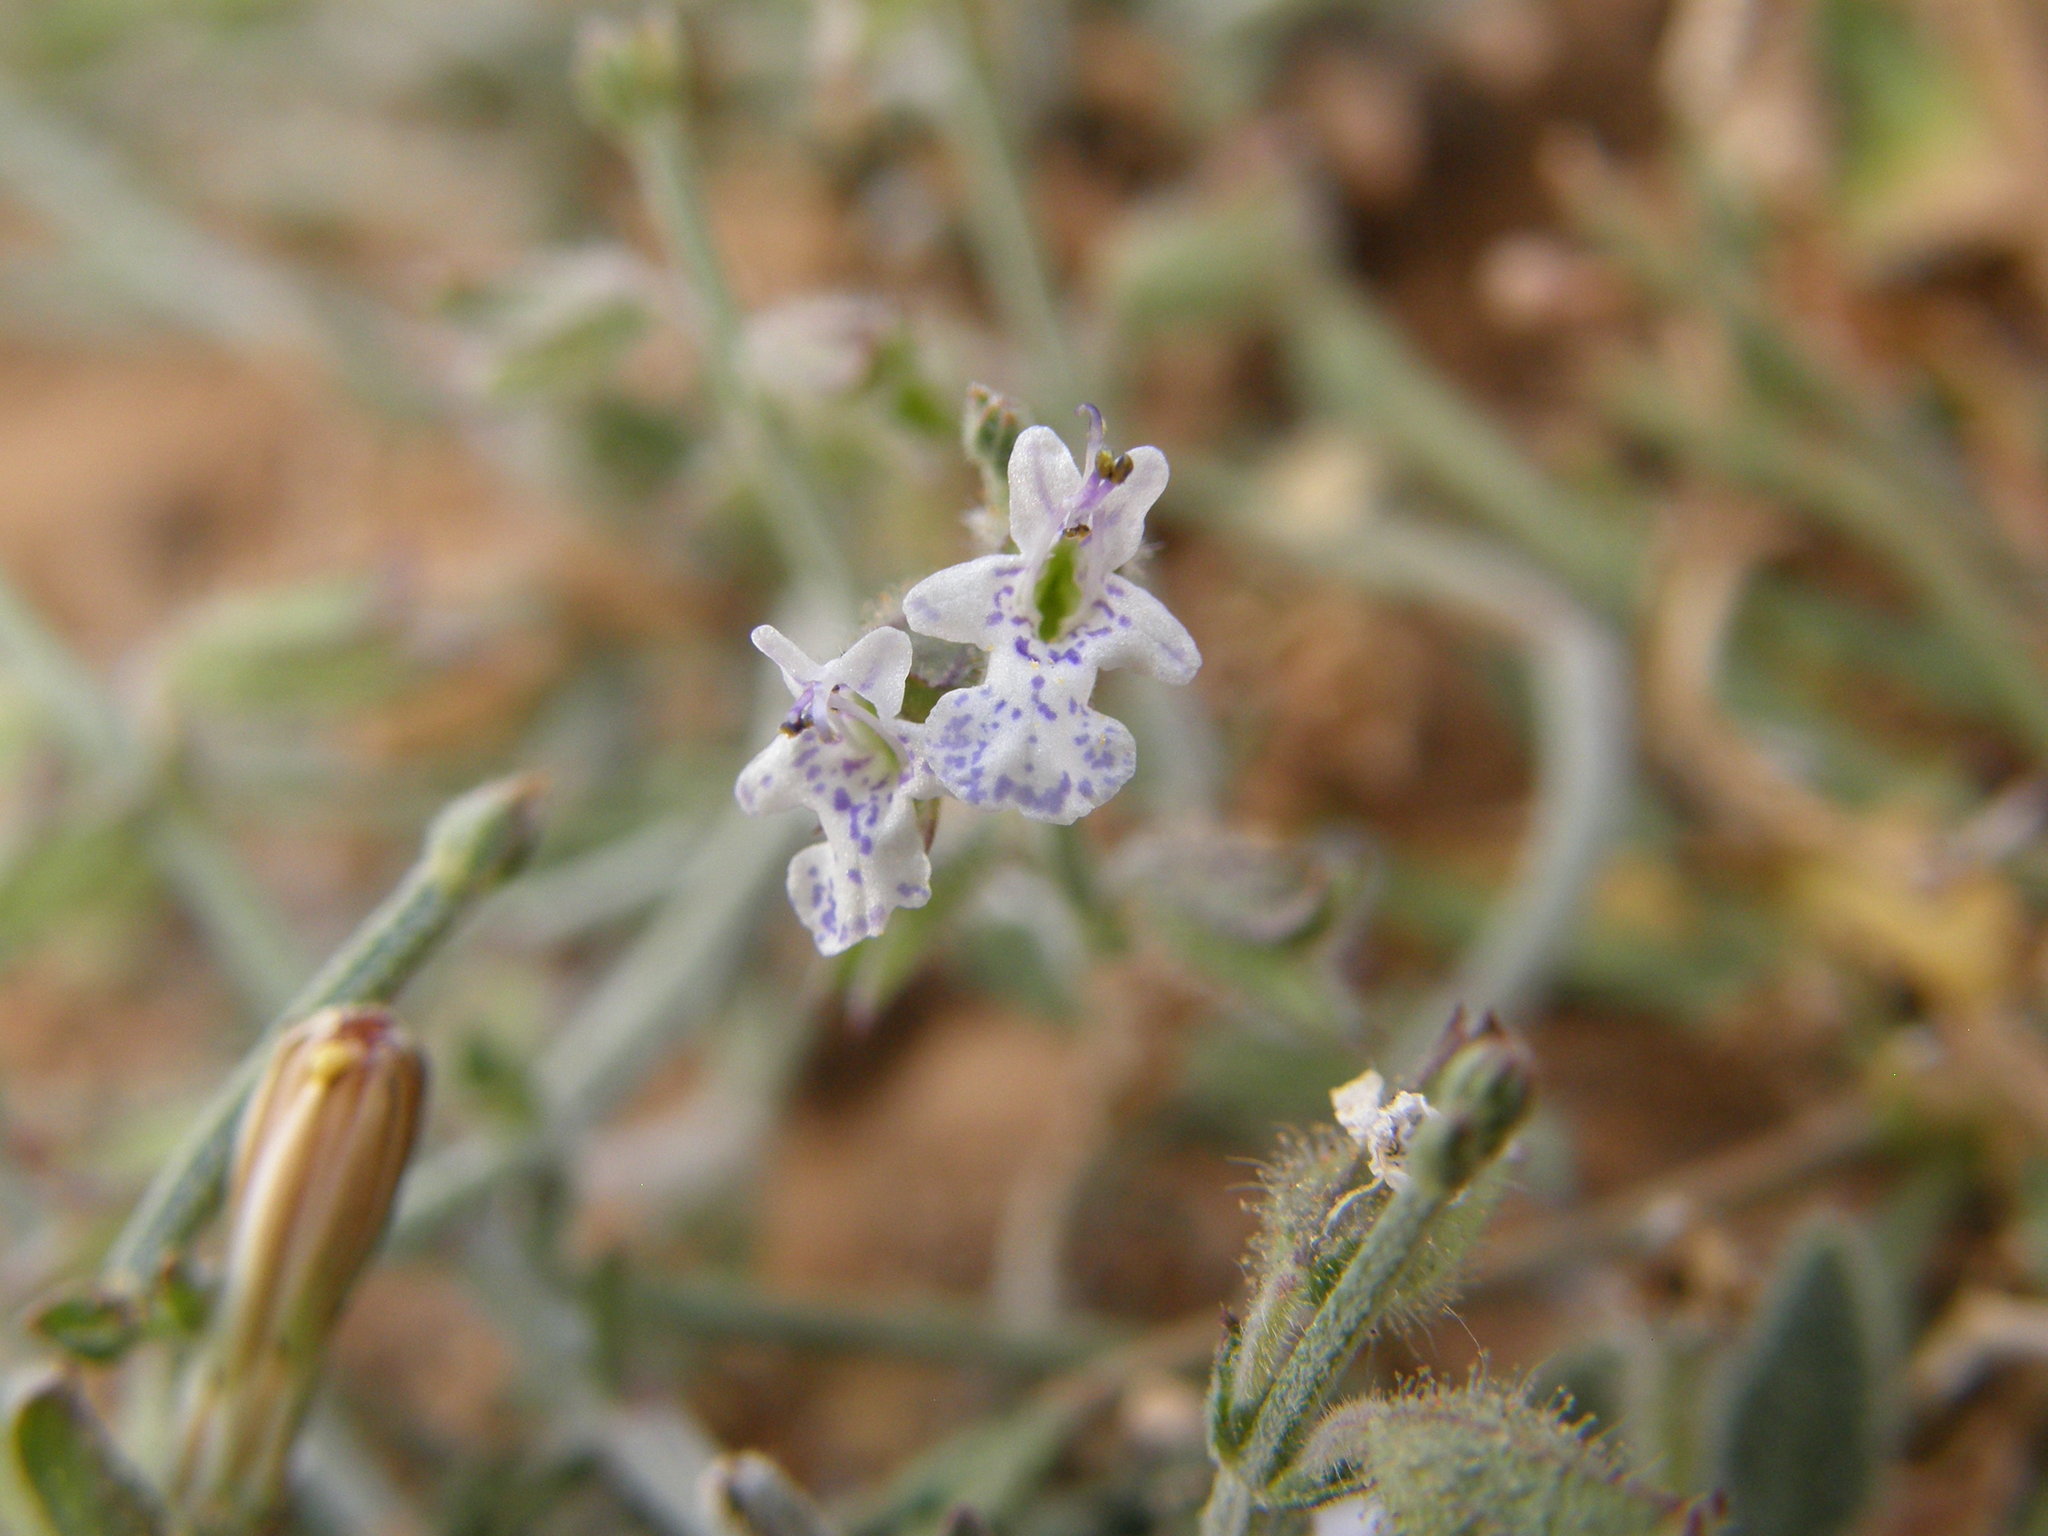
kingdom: Plantae
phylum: Tracheophyta
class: Magnoliopsida
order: Lamiales
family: Lamiaceae
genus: Salvia
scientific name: Salvia aegyptiaca
